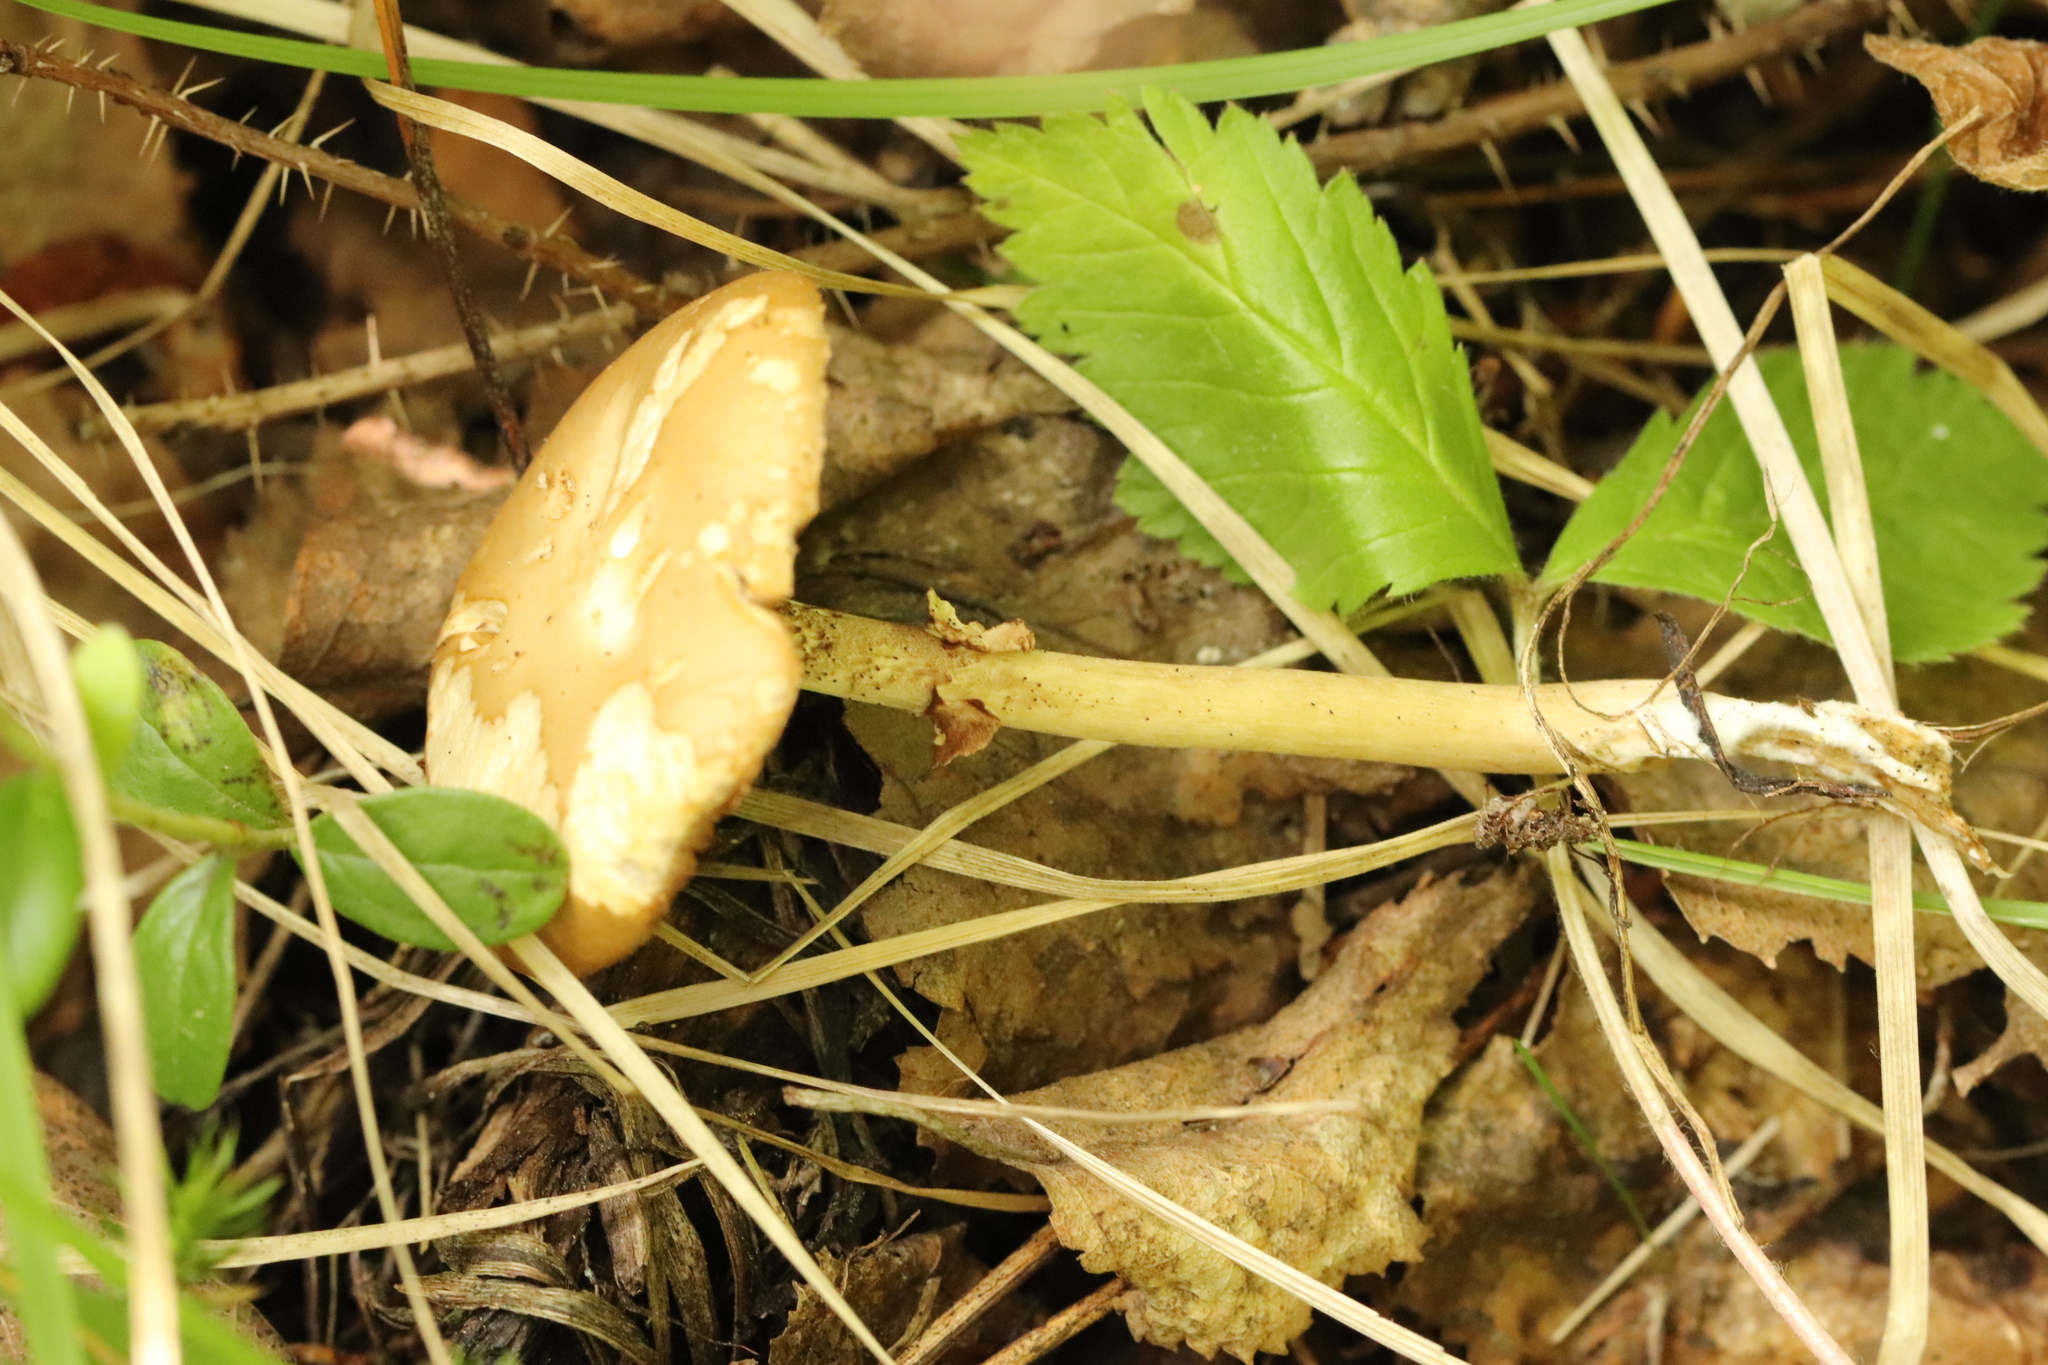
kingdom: Fungi
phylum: Basidiomycota
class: Agaricomycetes
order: Agaricales
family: Strophariaceae
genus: Agrocybe
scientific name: Agrocybe praecox
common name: Spring fieldcap
